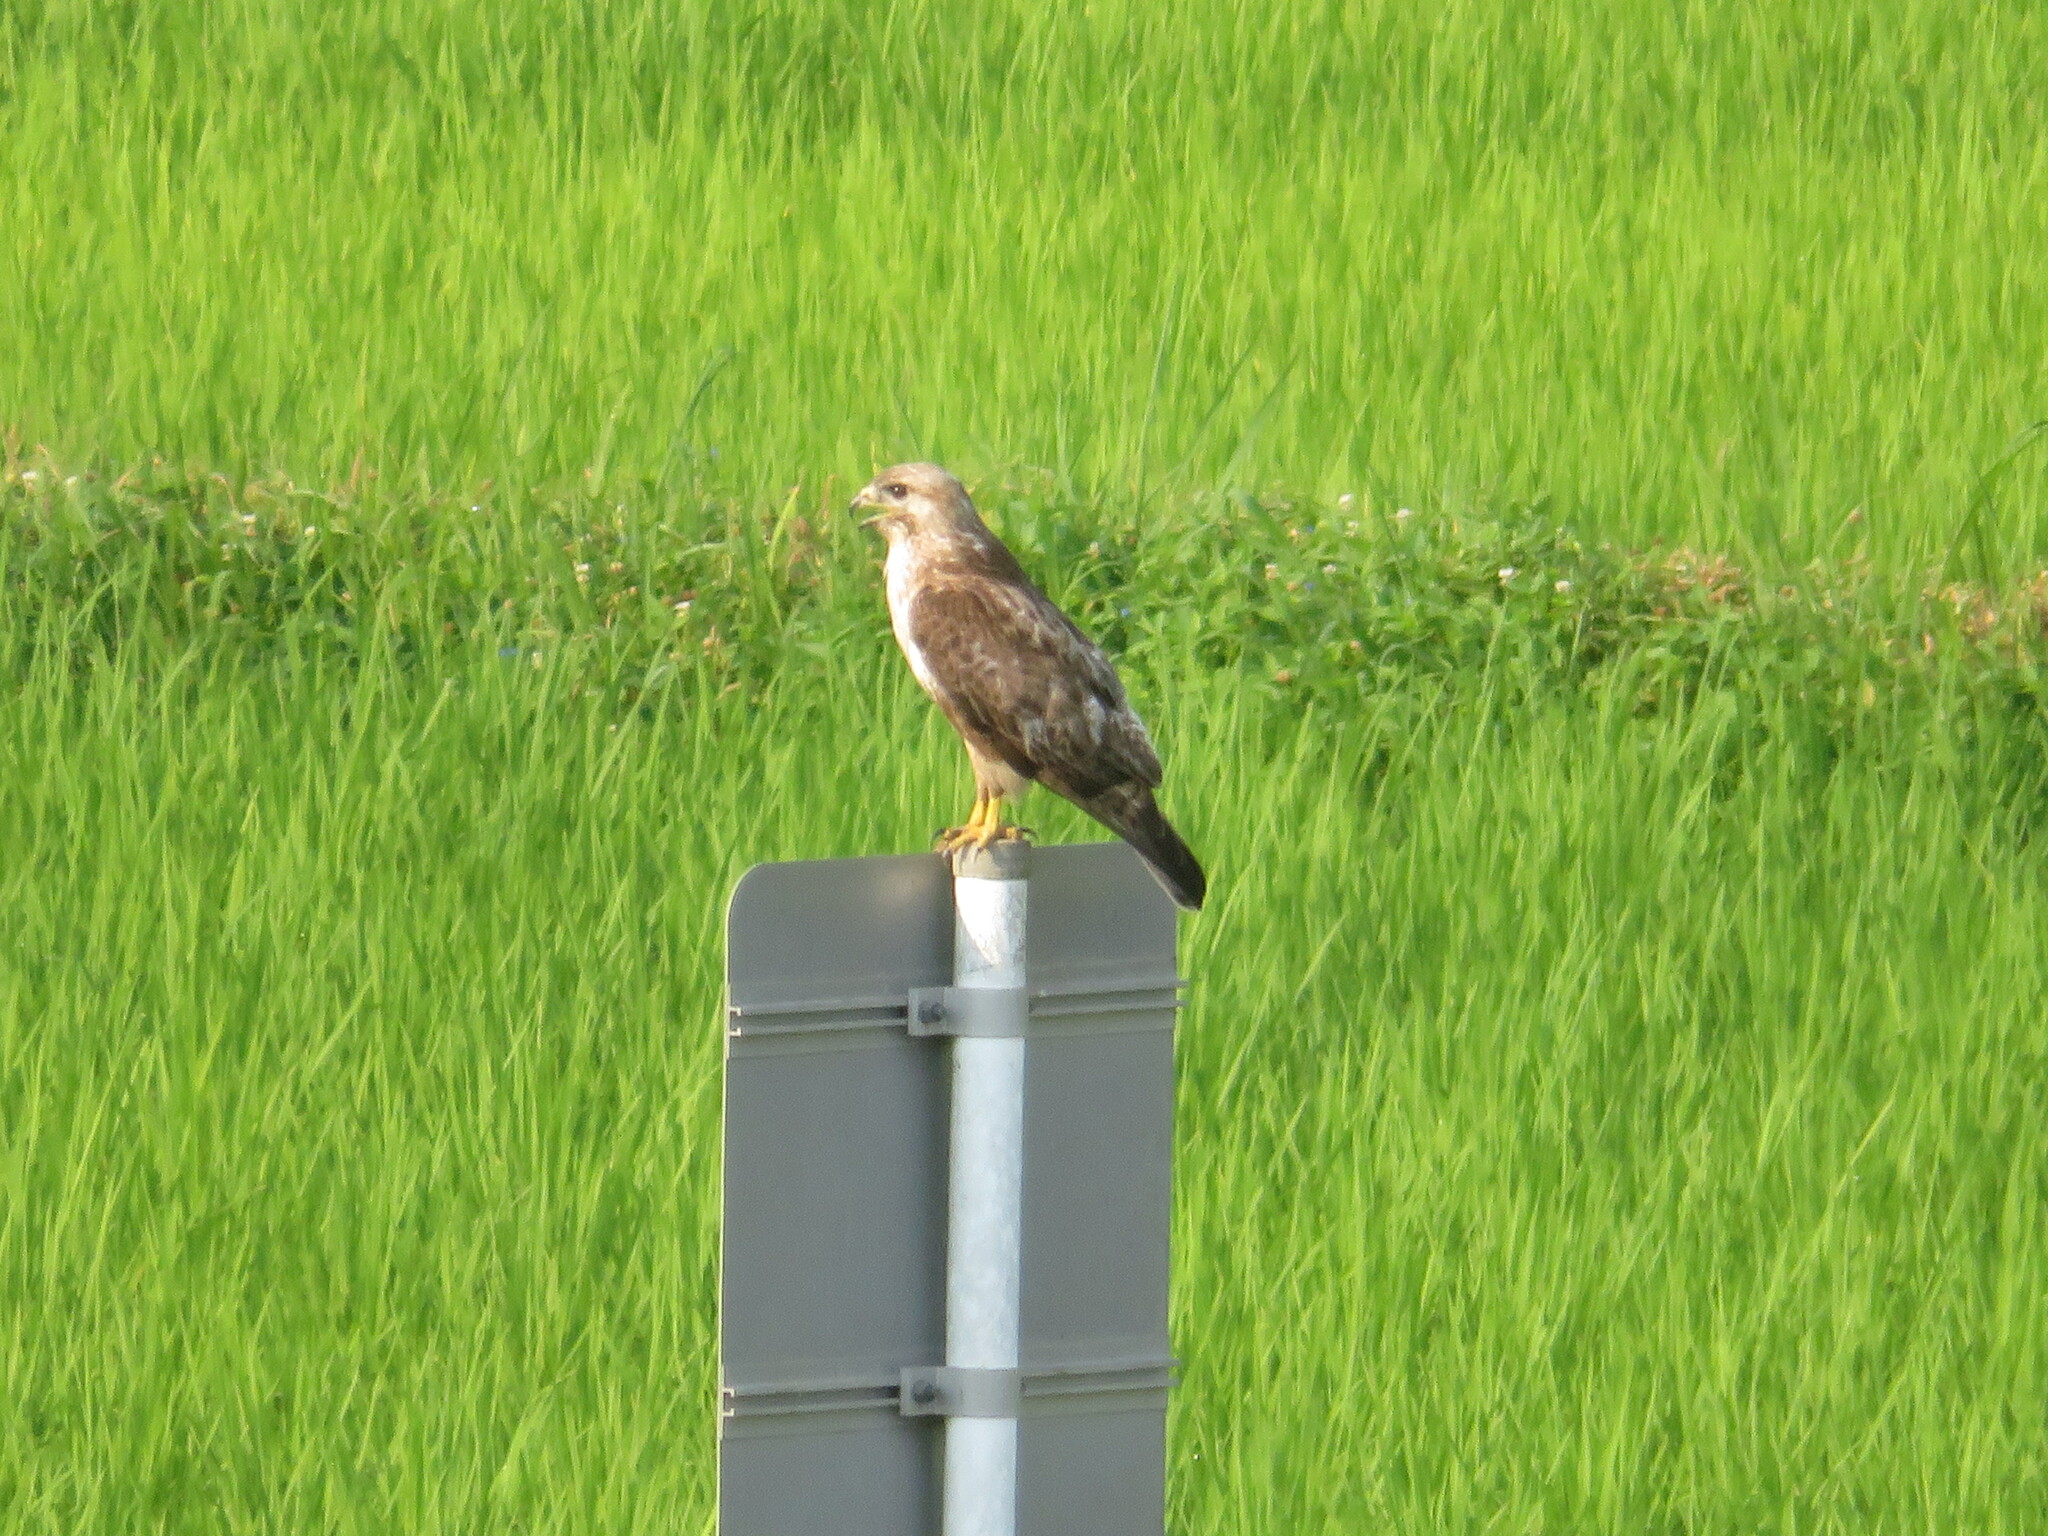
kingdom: Animalia
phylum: Chordata
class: Aves
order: Accipitriformes
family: Accipitridae
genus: Buteo
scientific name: Buteo japonicus
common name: Eastern buzzard
